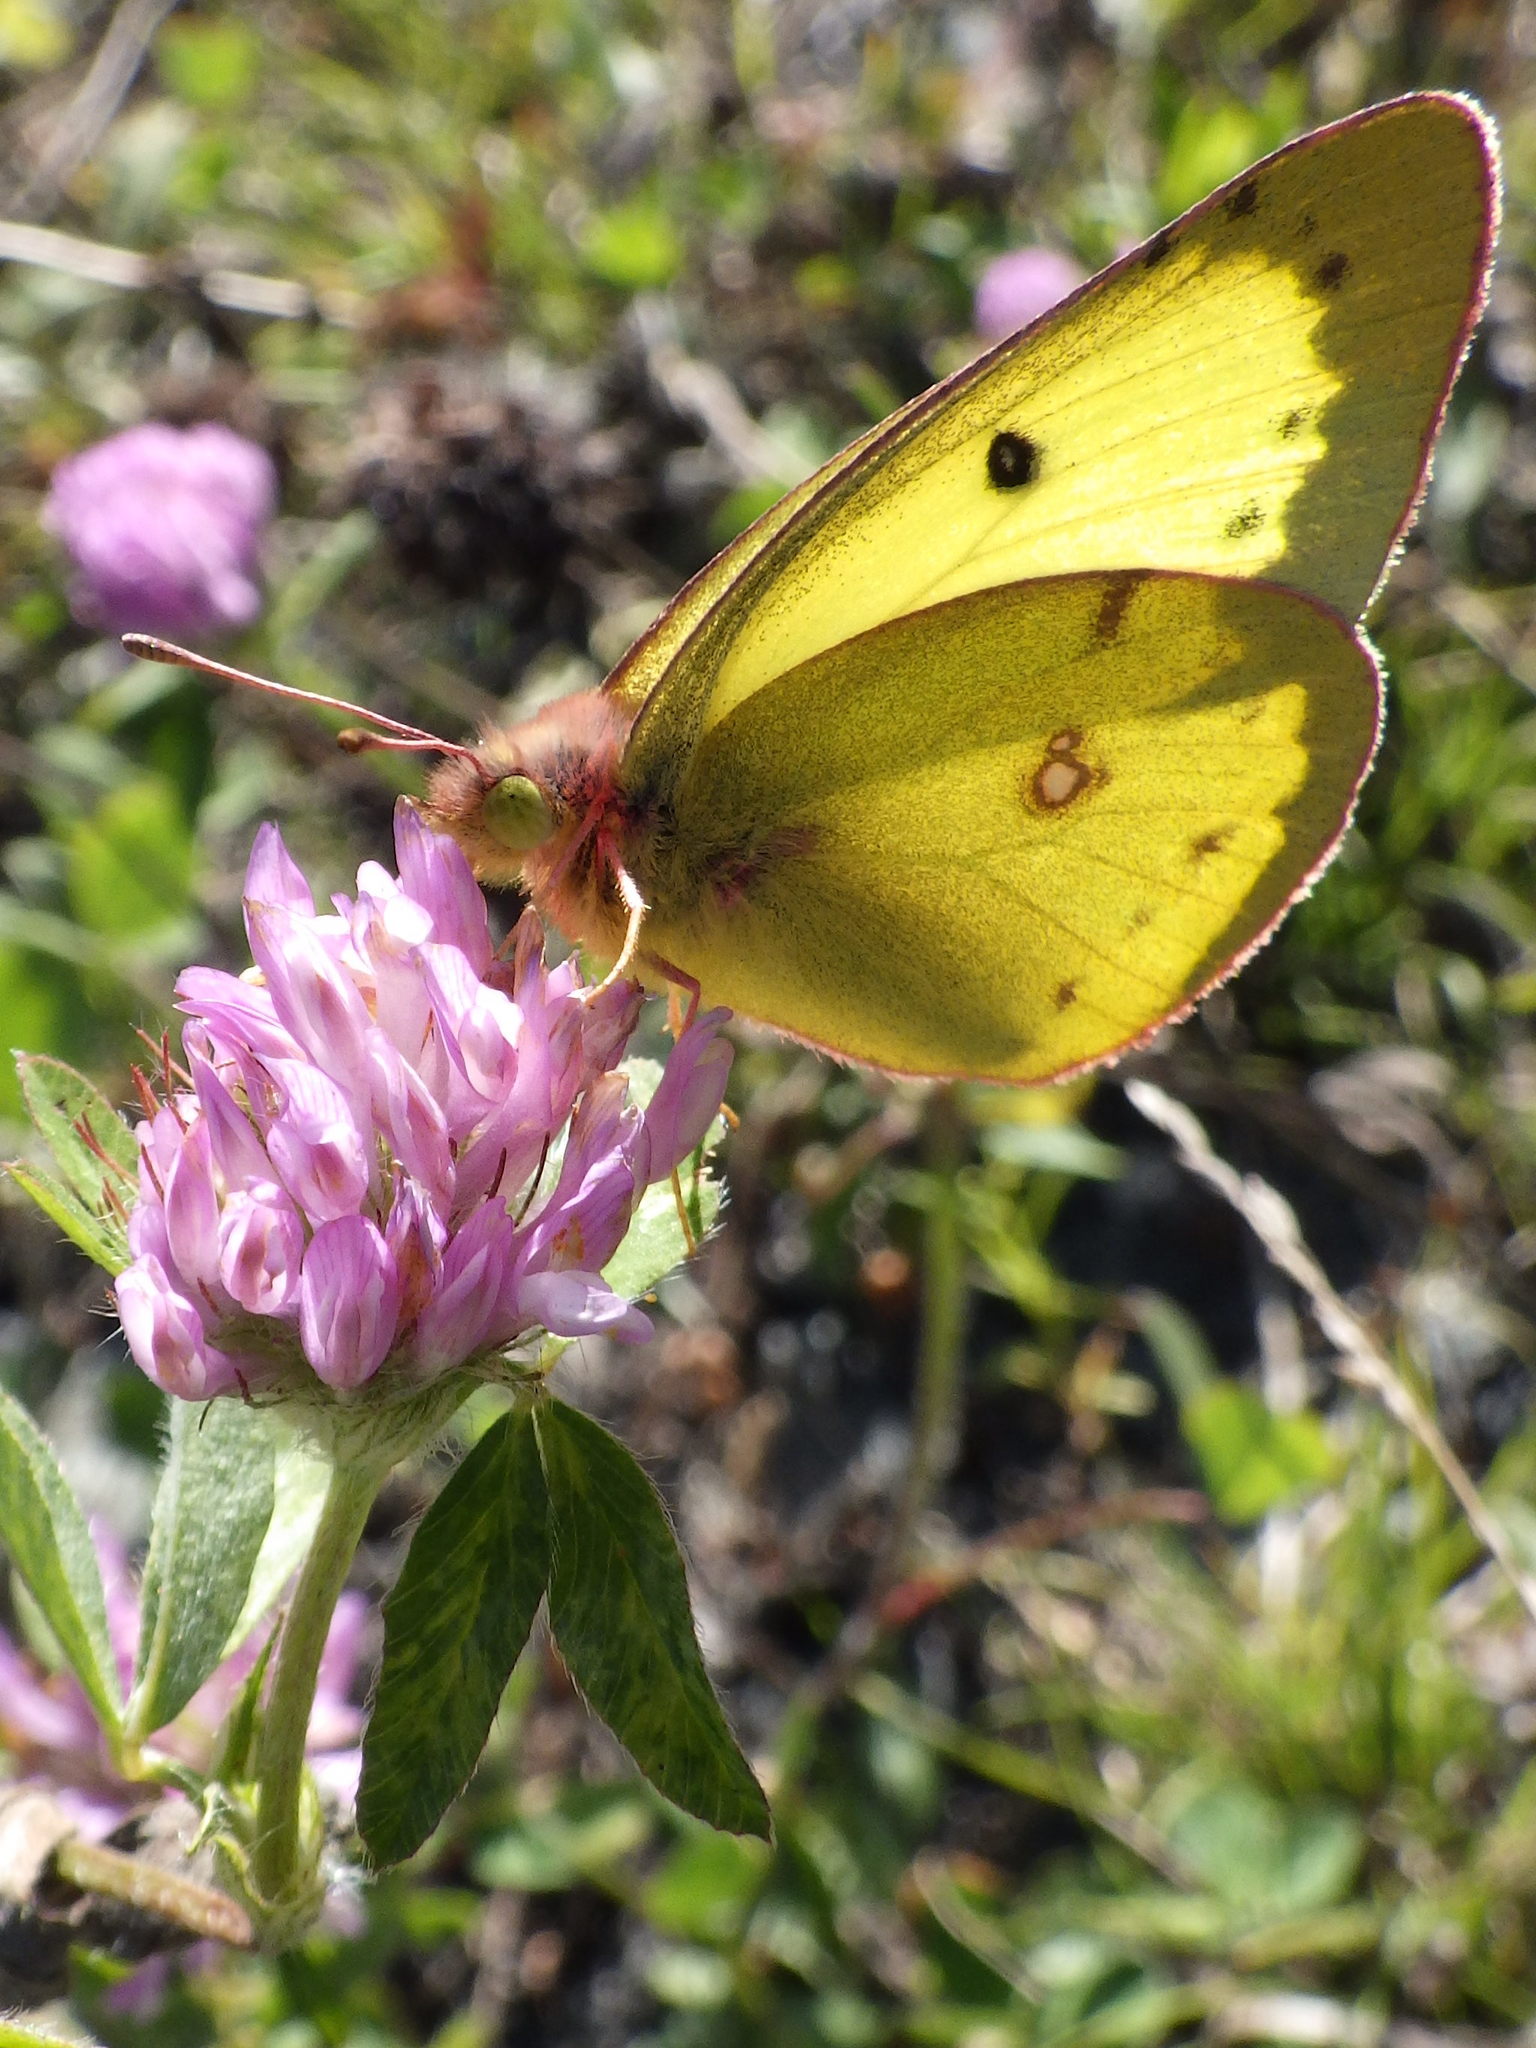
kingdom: Animalia
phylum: Arthropoda
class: Insecta
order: Lepidoptera
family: Pieridae
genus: Colias
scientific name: Colias philodice
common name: Clouded sulphur
